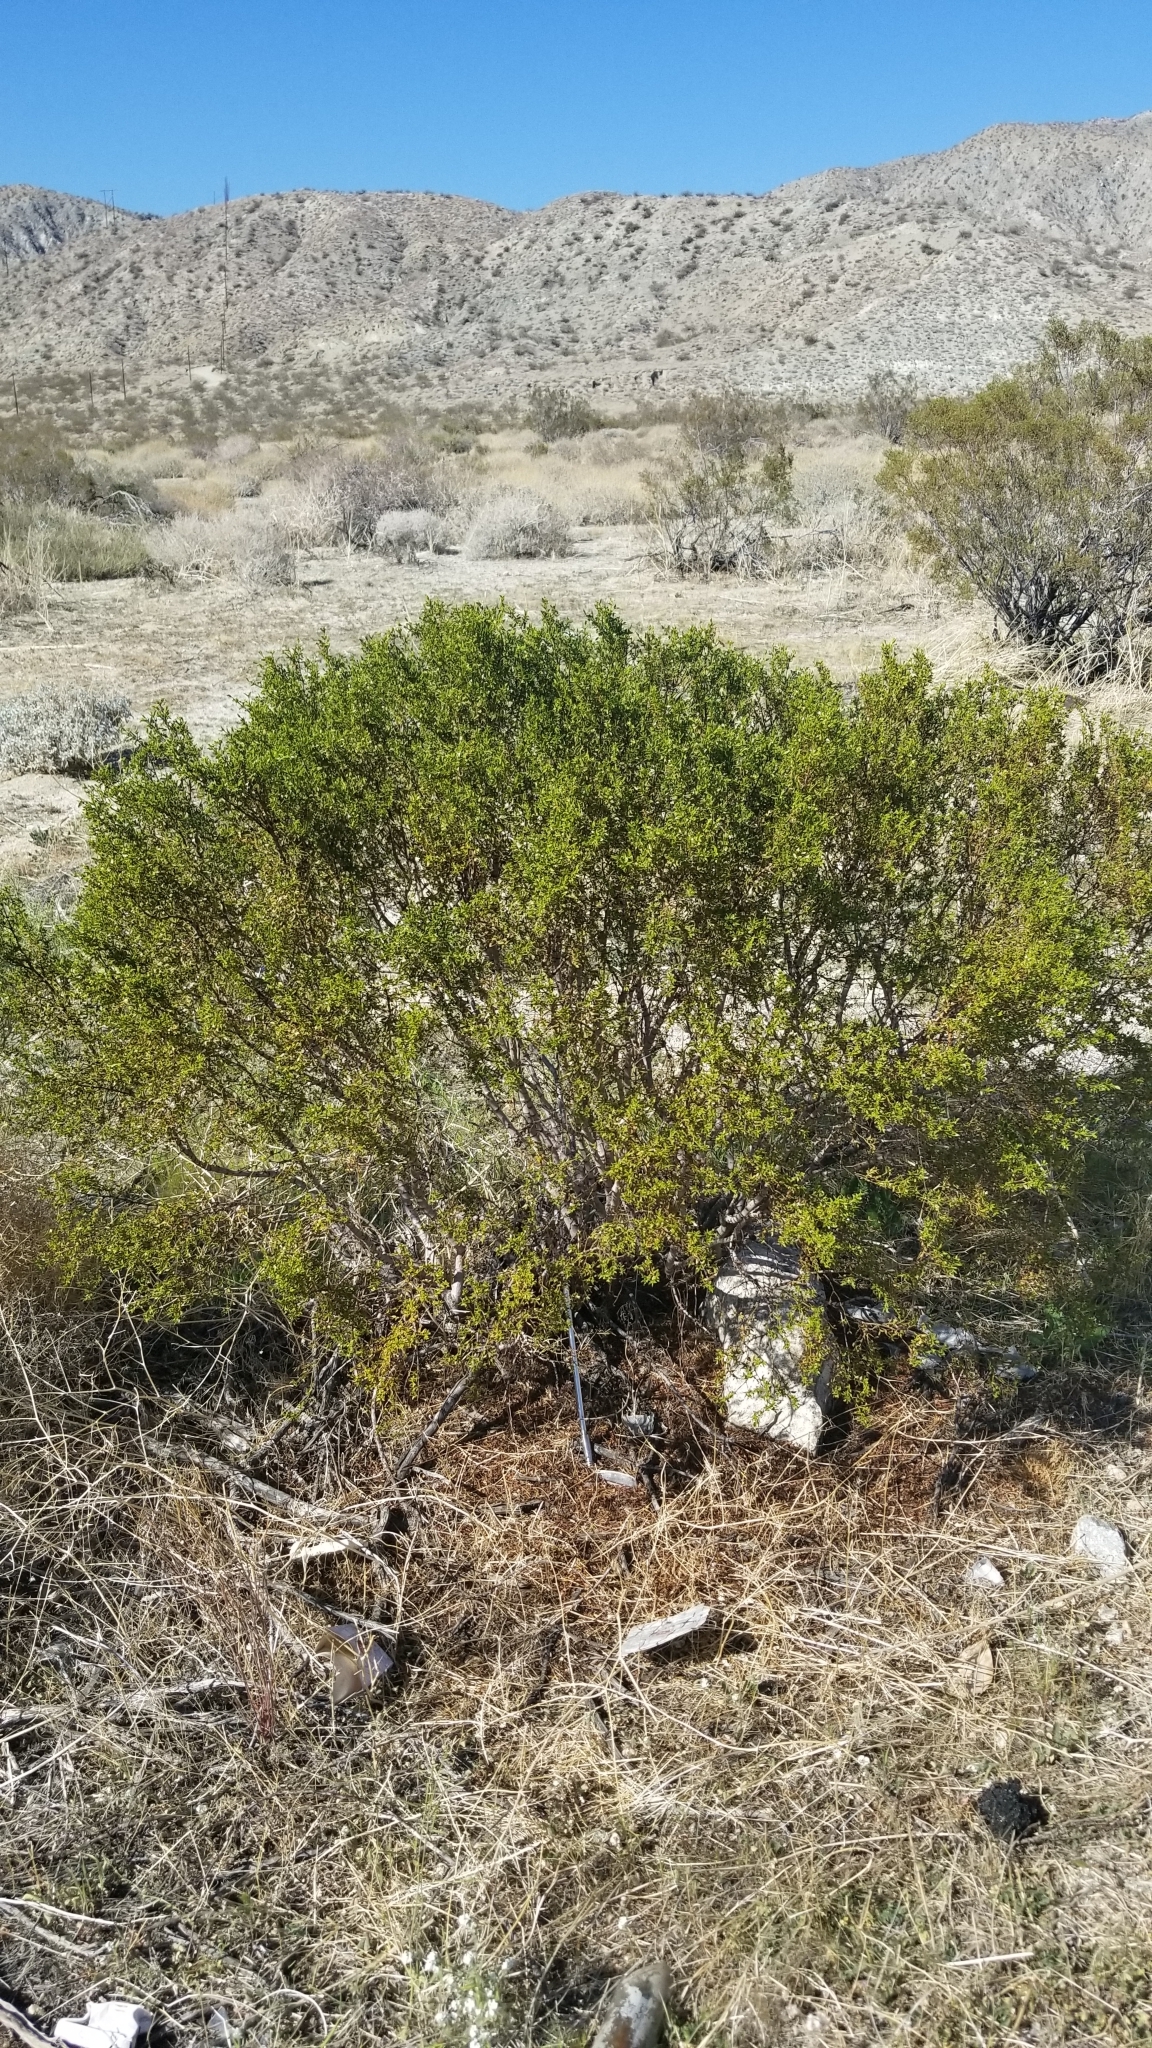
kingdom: Plantae
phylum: Tracheophyta
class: Magnoliopsida
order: Zygophyllales
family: Zygophyllaceae
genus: Larrea
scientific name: Larrea tridentata
